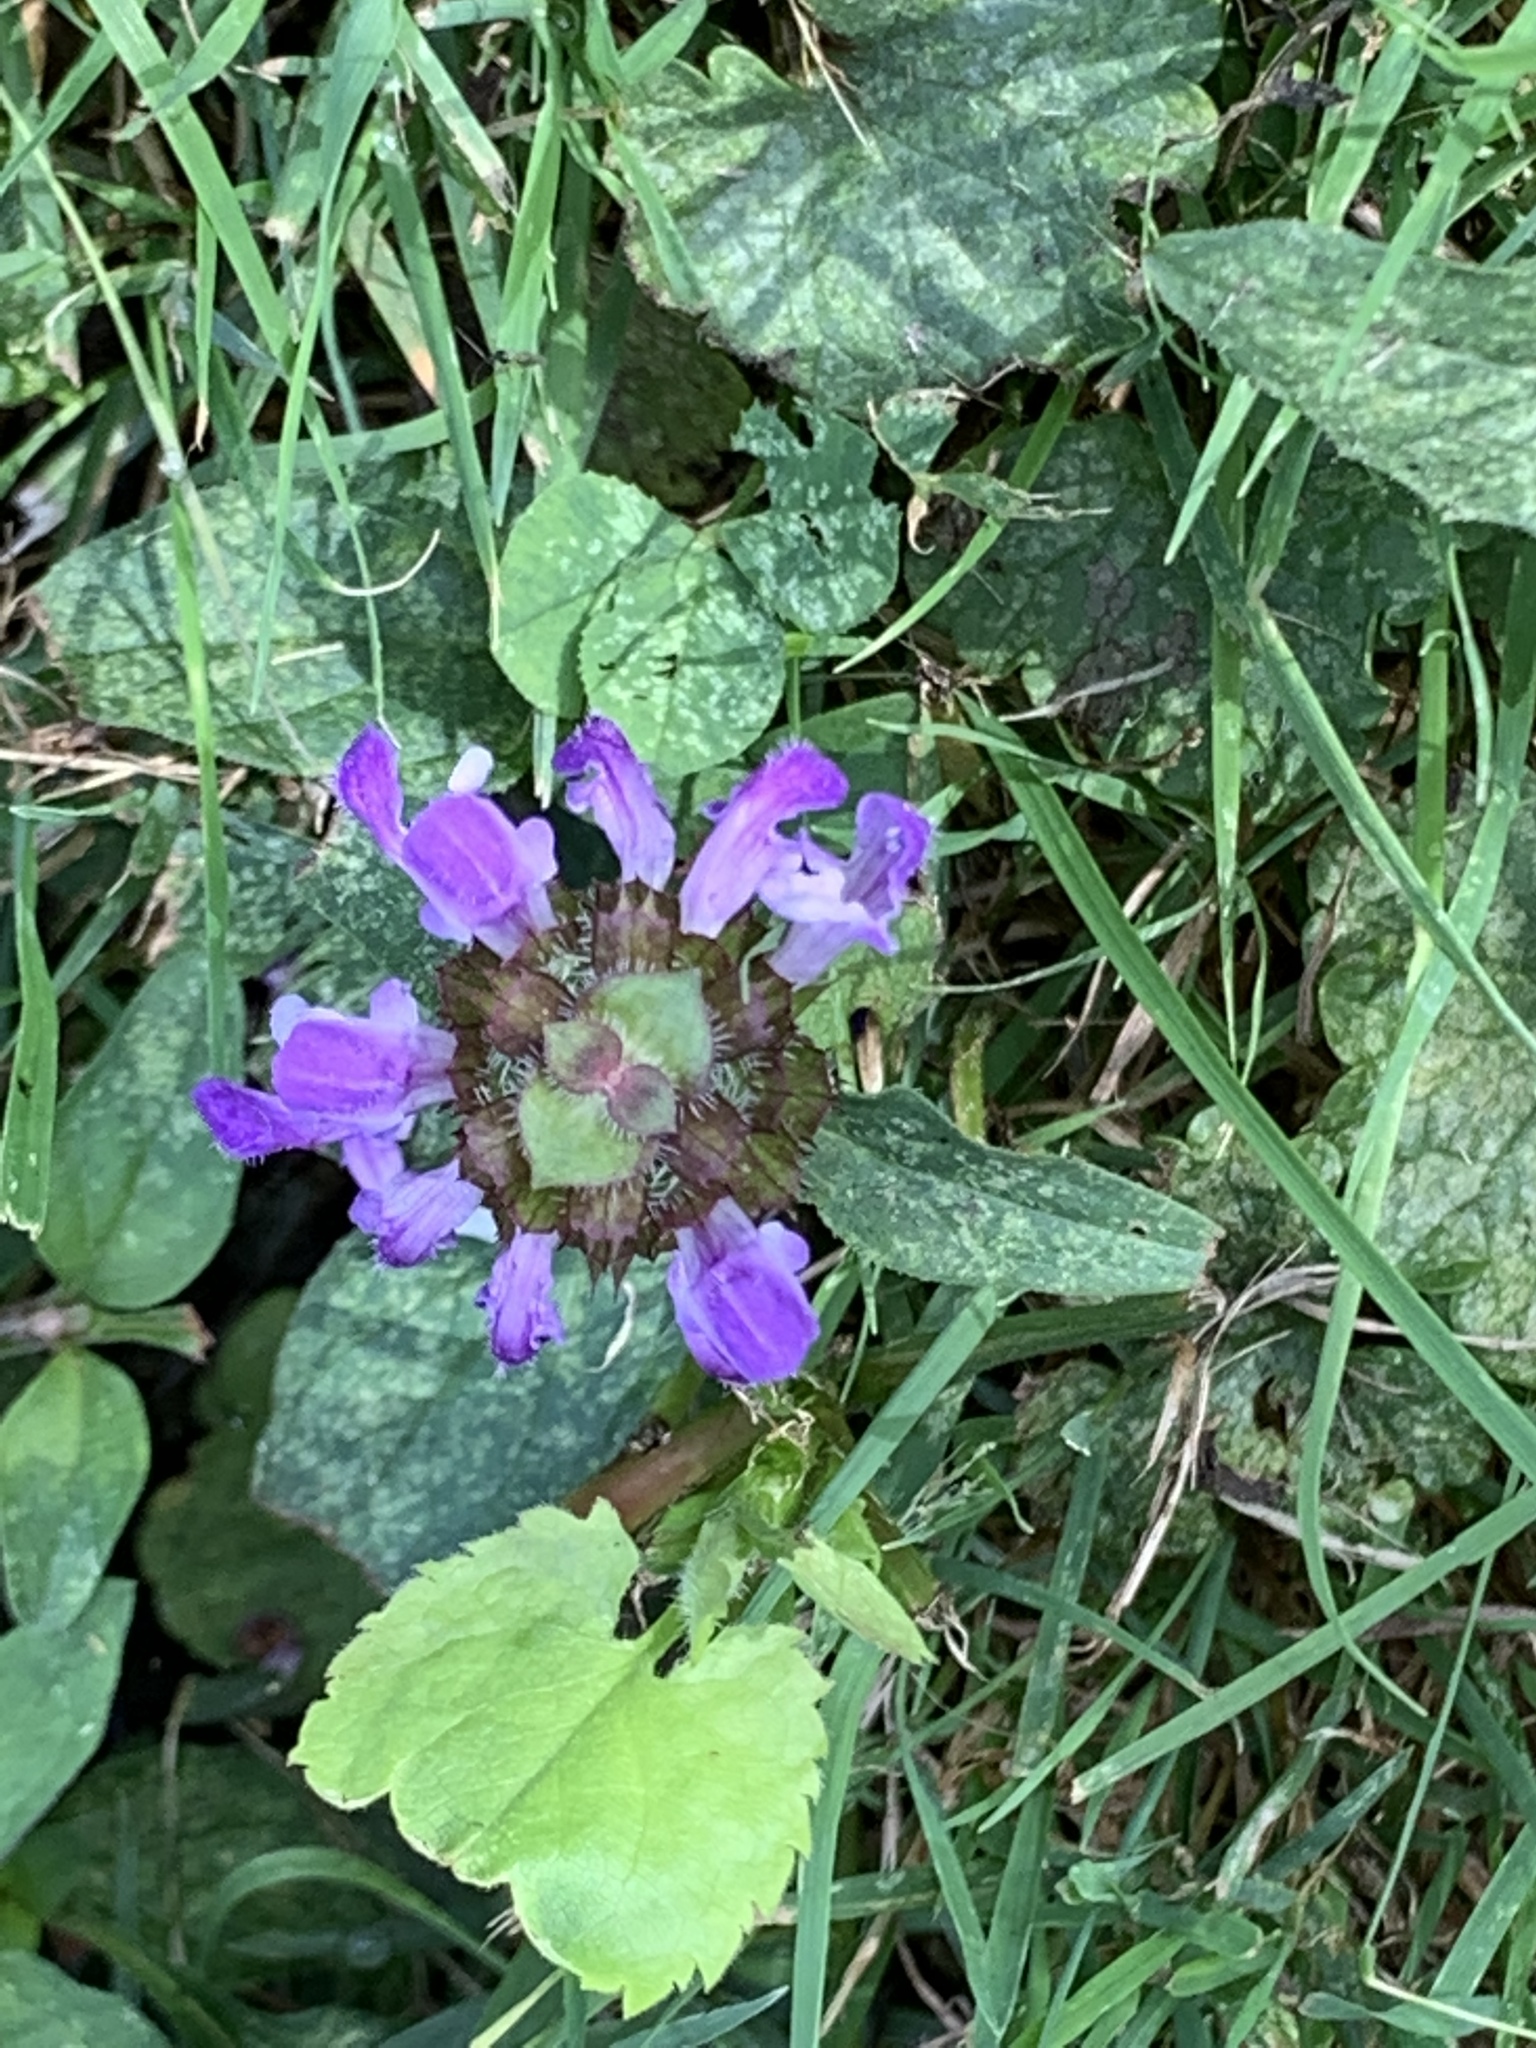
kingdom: Plantae
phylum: Tracheophyta
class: Magnoliopsida
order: Lamiales
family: Lamiaceae
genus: Prunella
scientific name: Prunella vulgaris
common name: Heal-all
